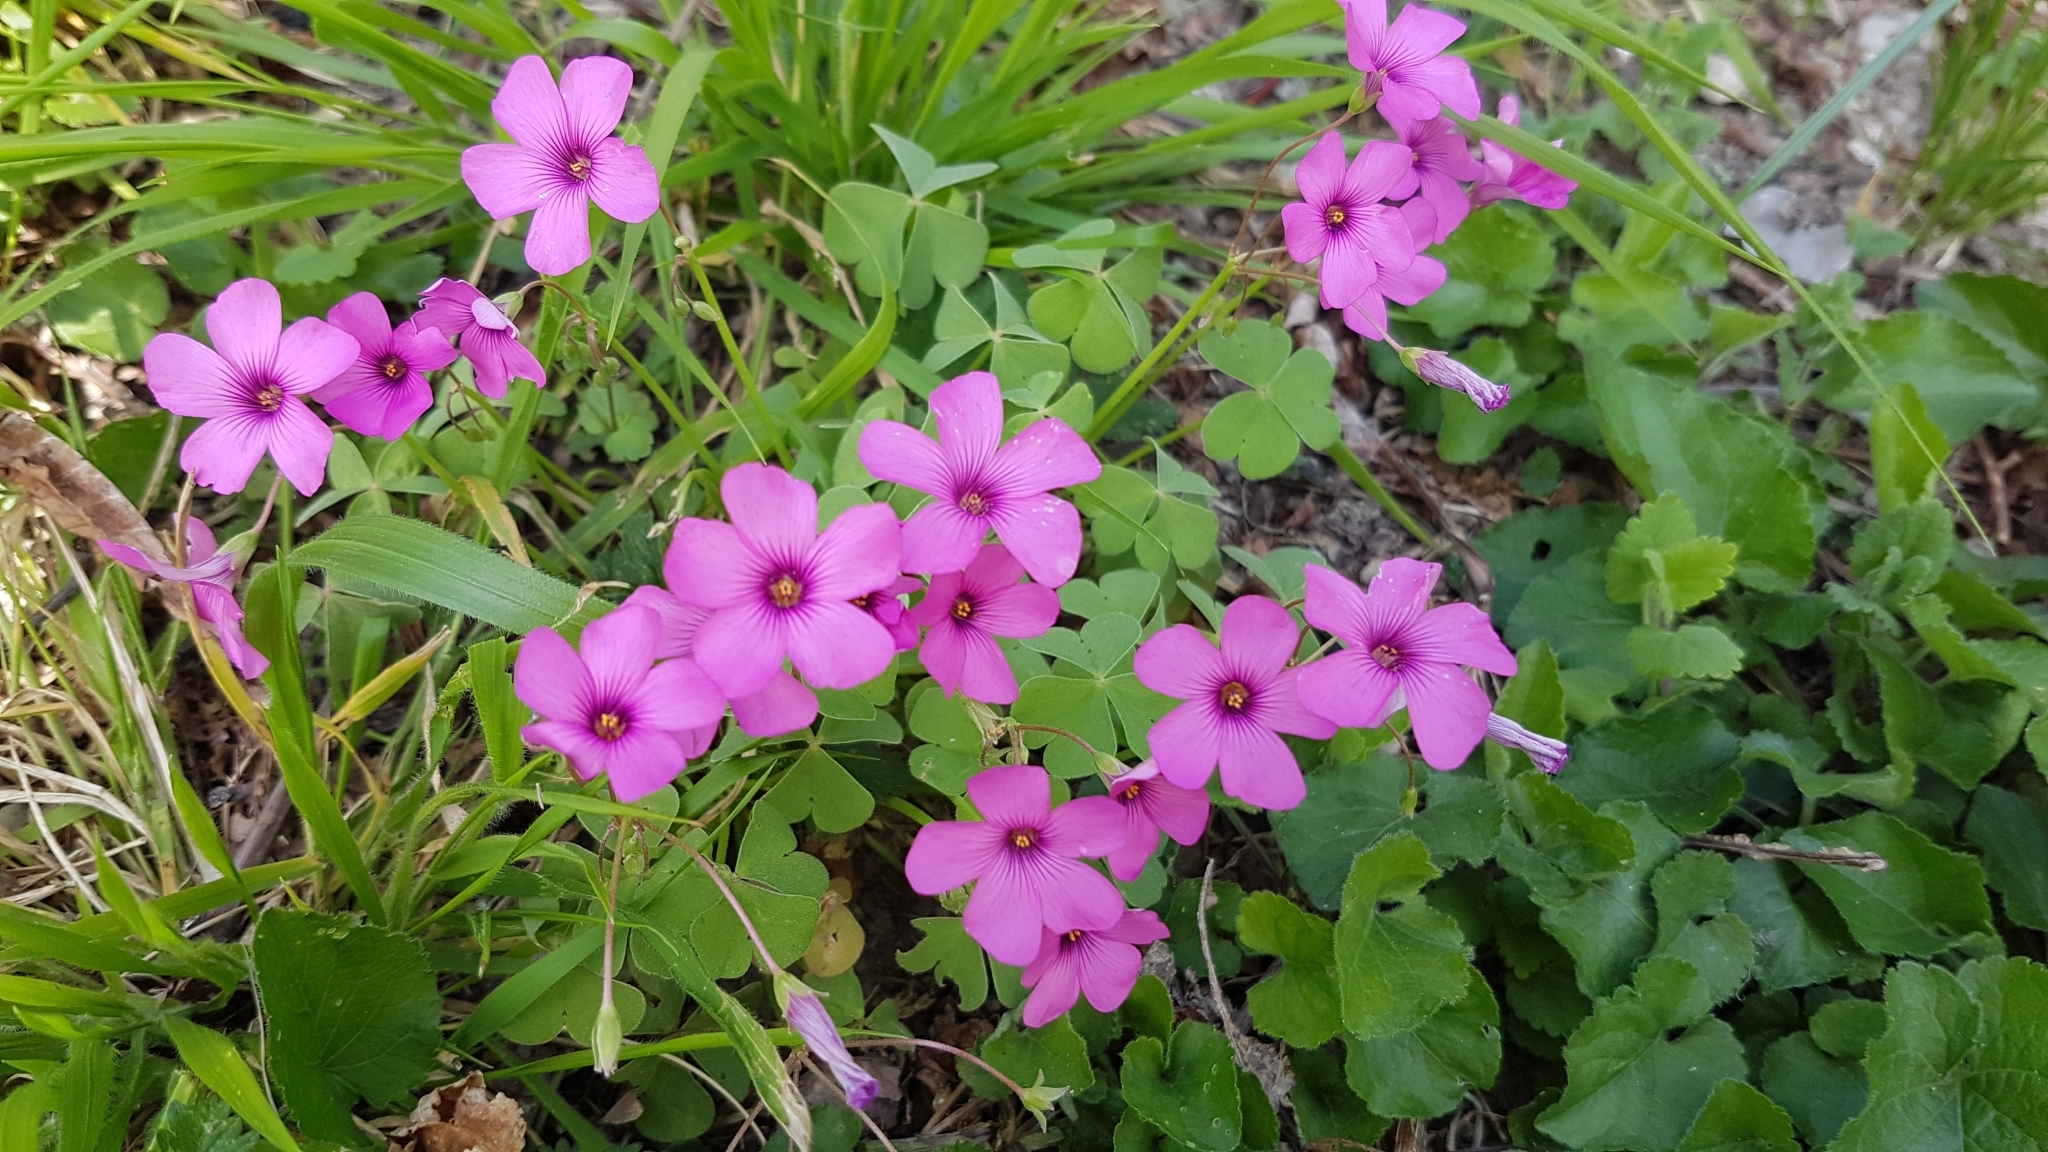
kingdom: Plantae
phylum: Tracheophyta
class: Magnoliopsida
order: Oxalidales
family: Oxalidaceae
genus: Oxalis
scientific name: Oxalis articulata
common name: Pink-sorrel
